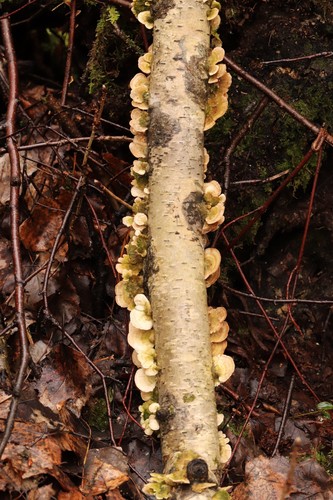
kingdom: Fungi
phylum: Basidiomycota
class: Agaricomycetes
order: Hymenochaetales
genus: Trichaptum
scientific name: Trichaptum biforme
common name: Violet-toothed polypore
